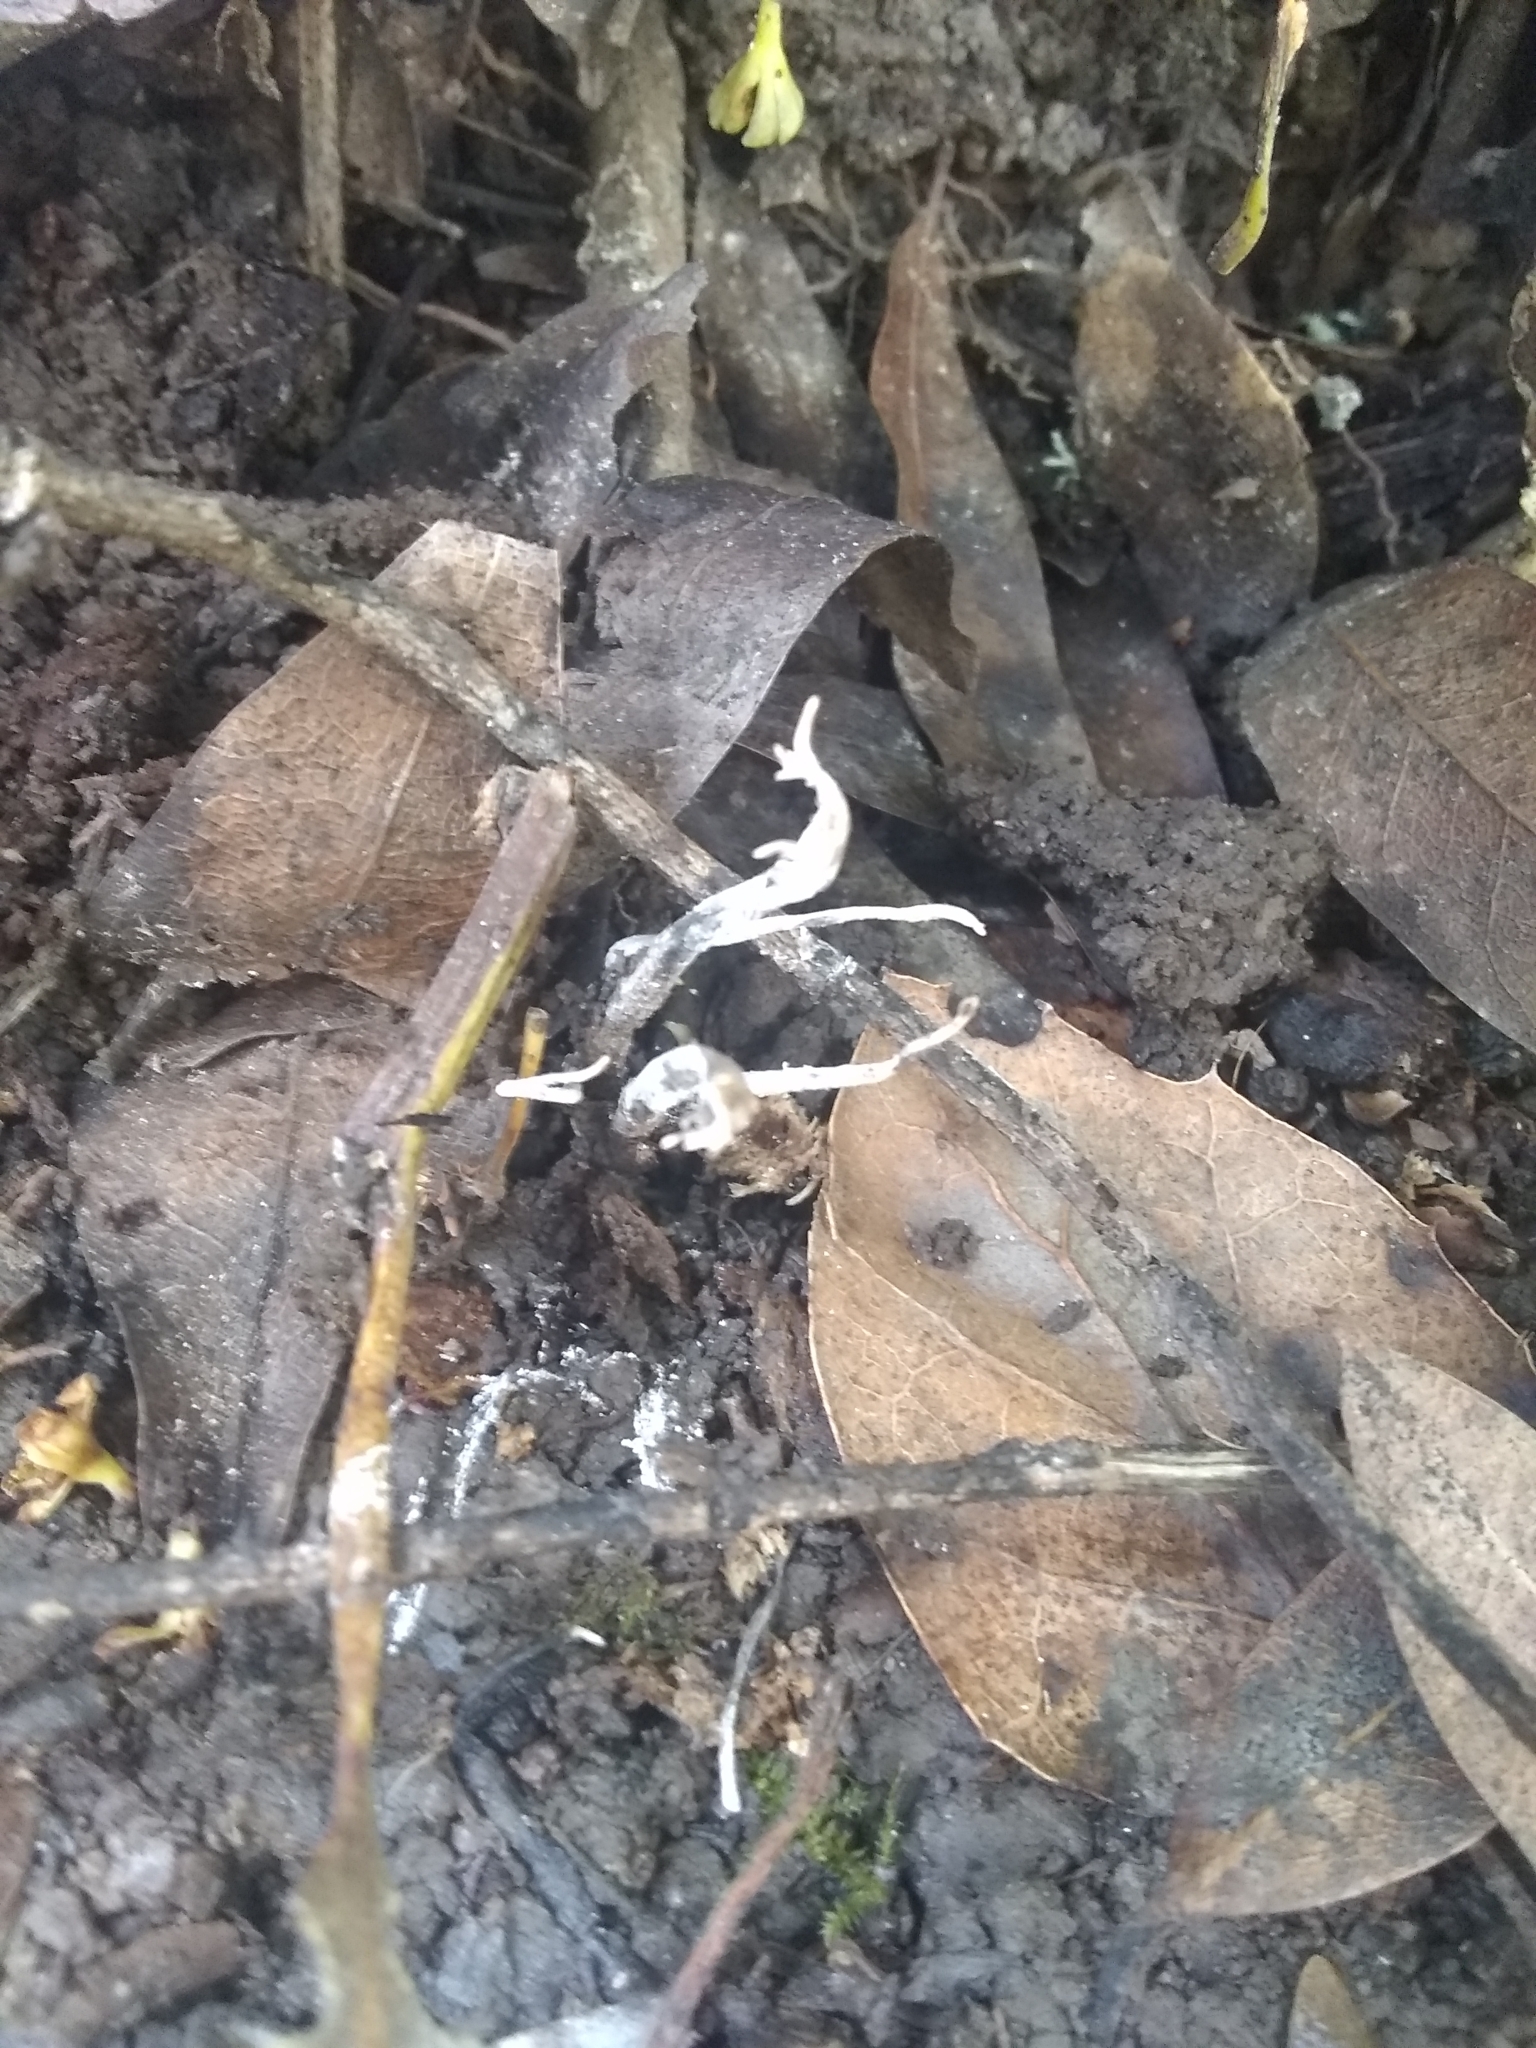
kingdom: Fungi
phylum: Ascomycota
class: Sordariomycetes
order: Xylariales
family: Xylariaceae
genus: Xylaria
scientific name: Xylaria hypoxylon
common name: Candle-snuff fungus
